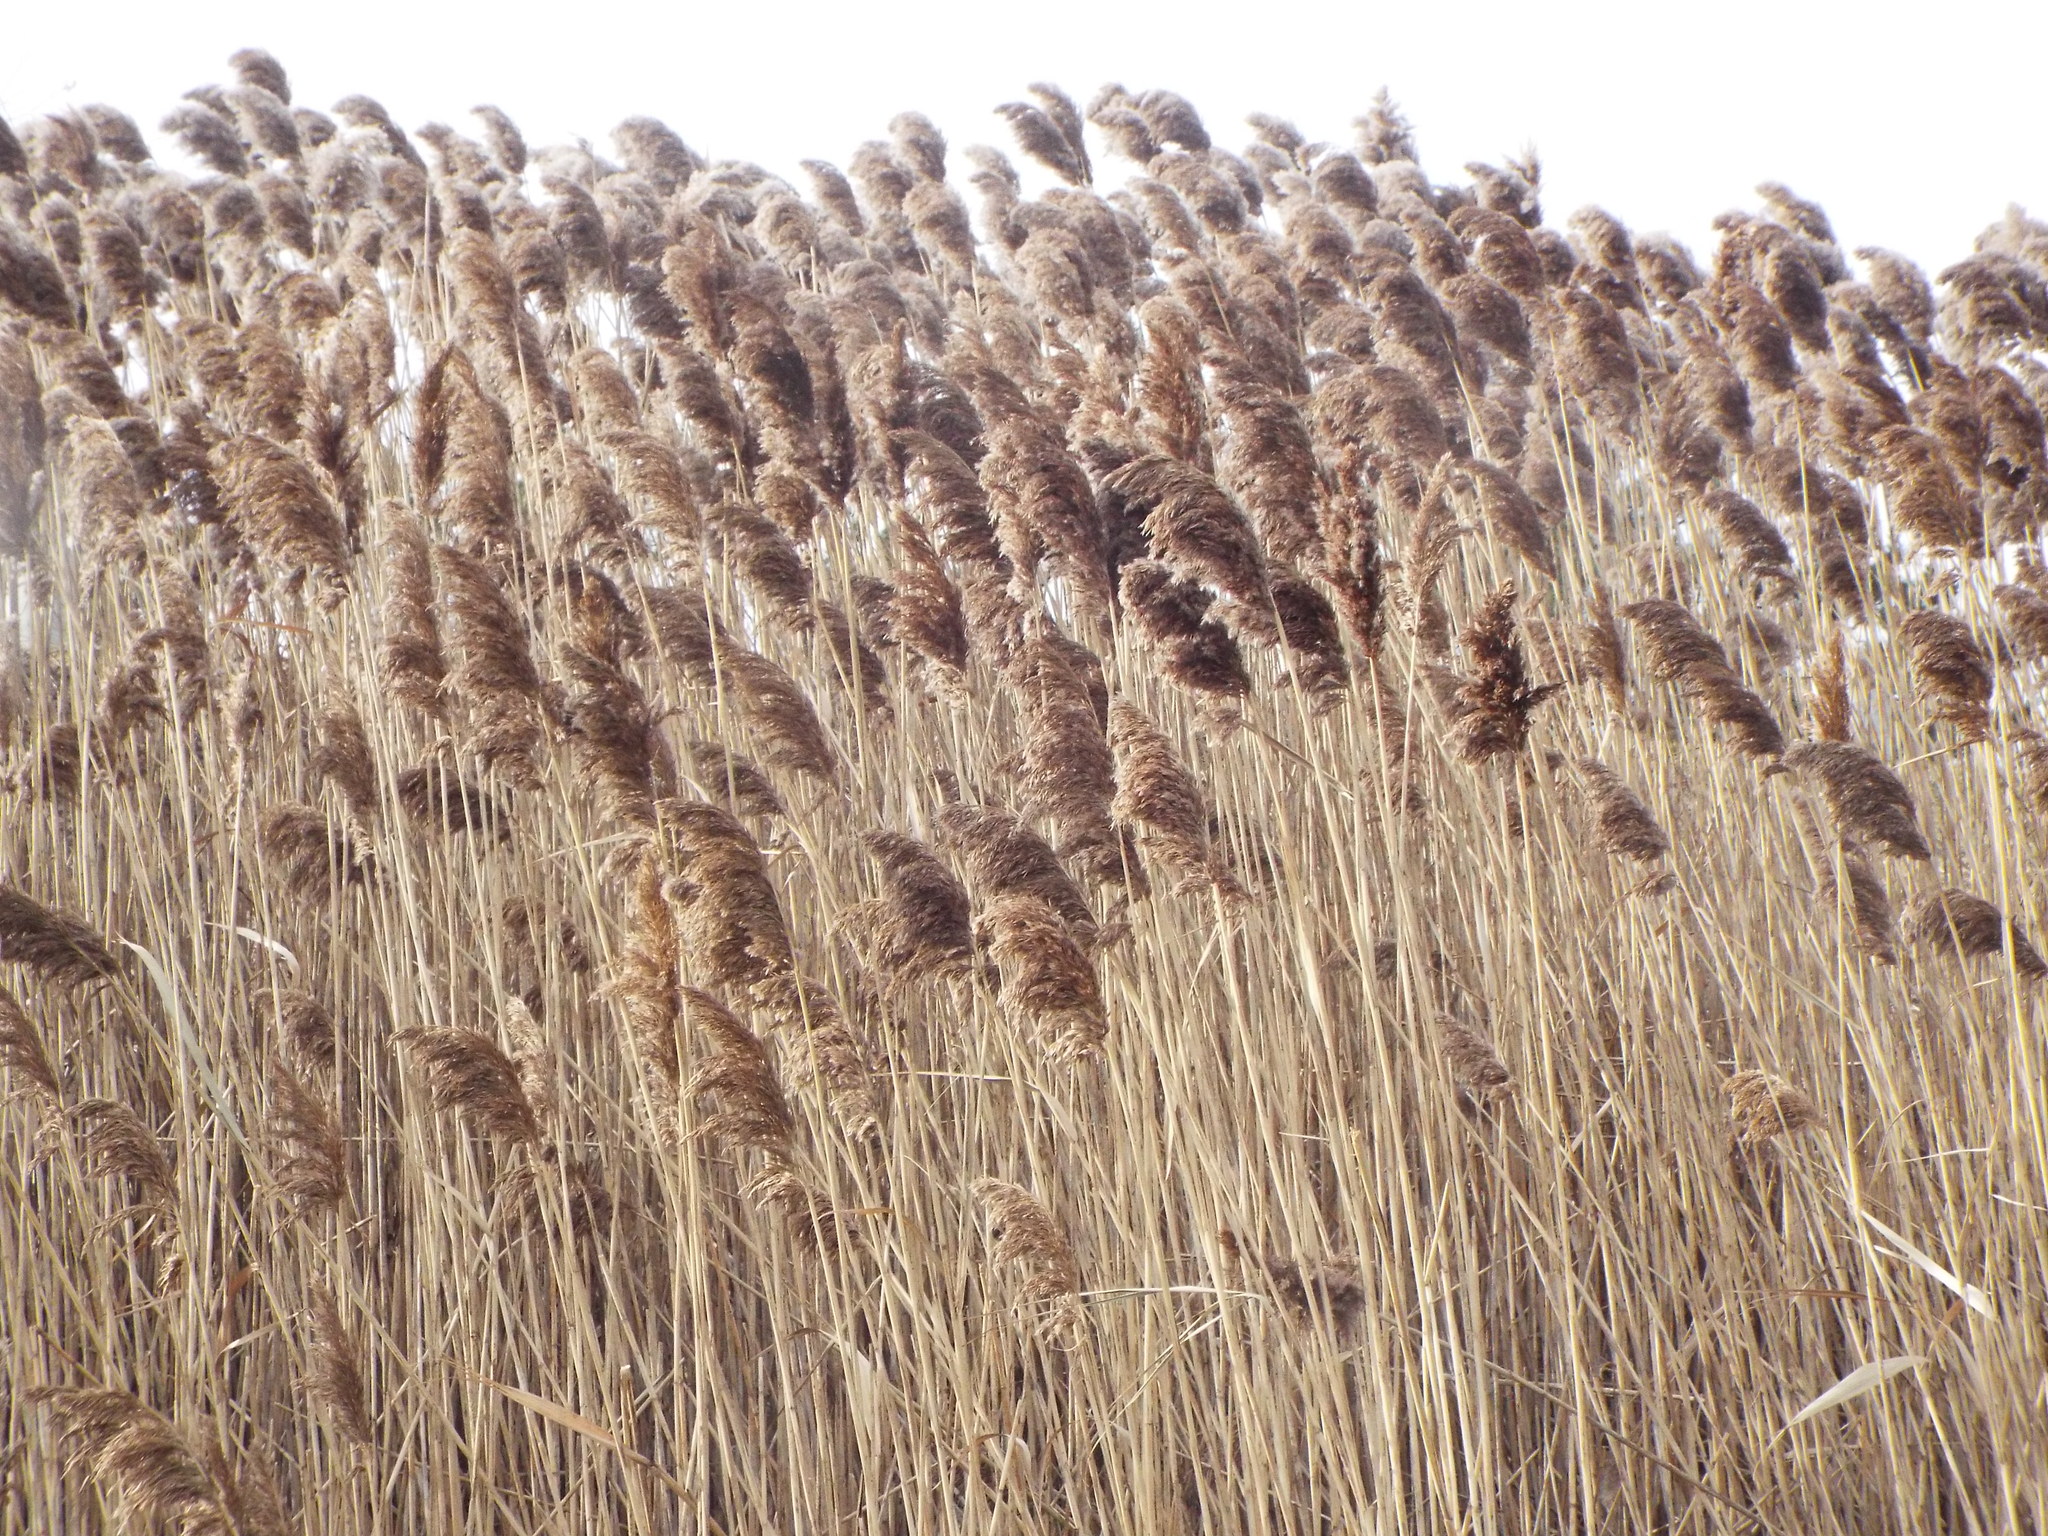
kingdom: Plantae
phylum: Tracheophyta
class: Liliopsida
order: Poales
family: Poaceae
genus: Phragmites
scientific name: Phragmites australis
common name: Common reed
